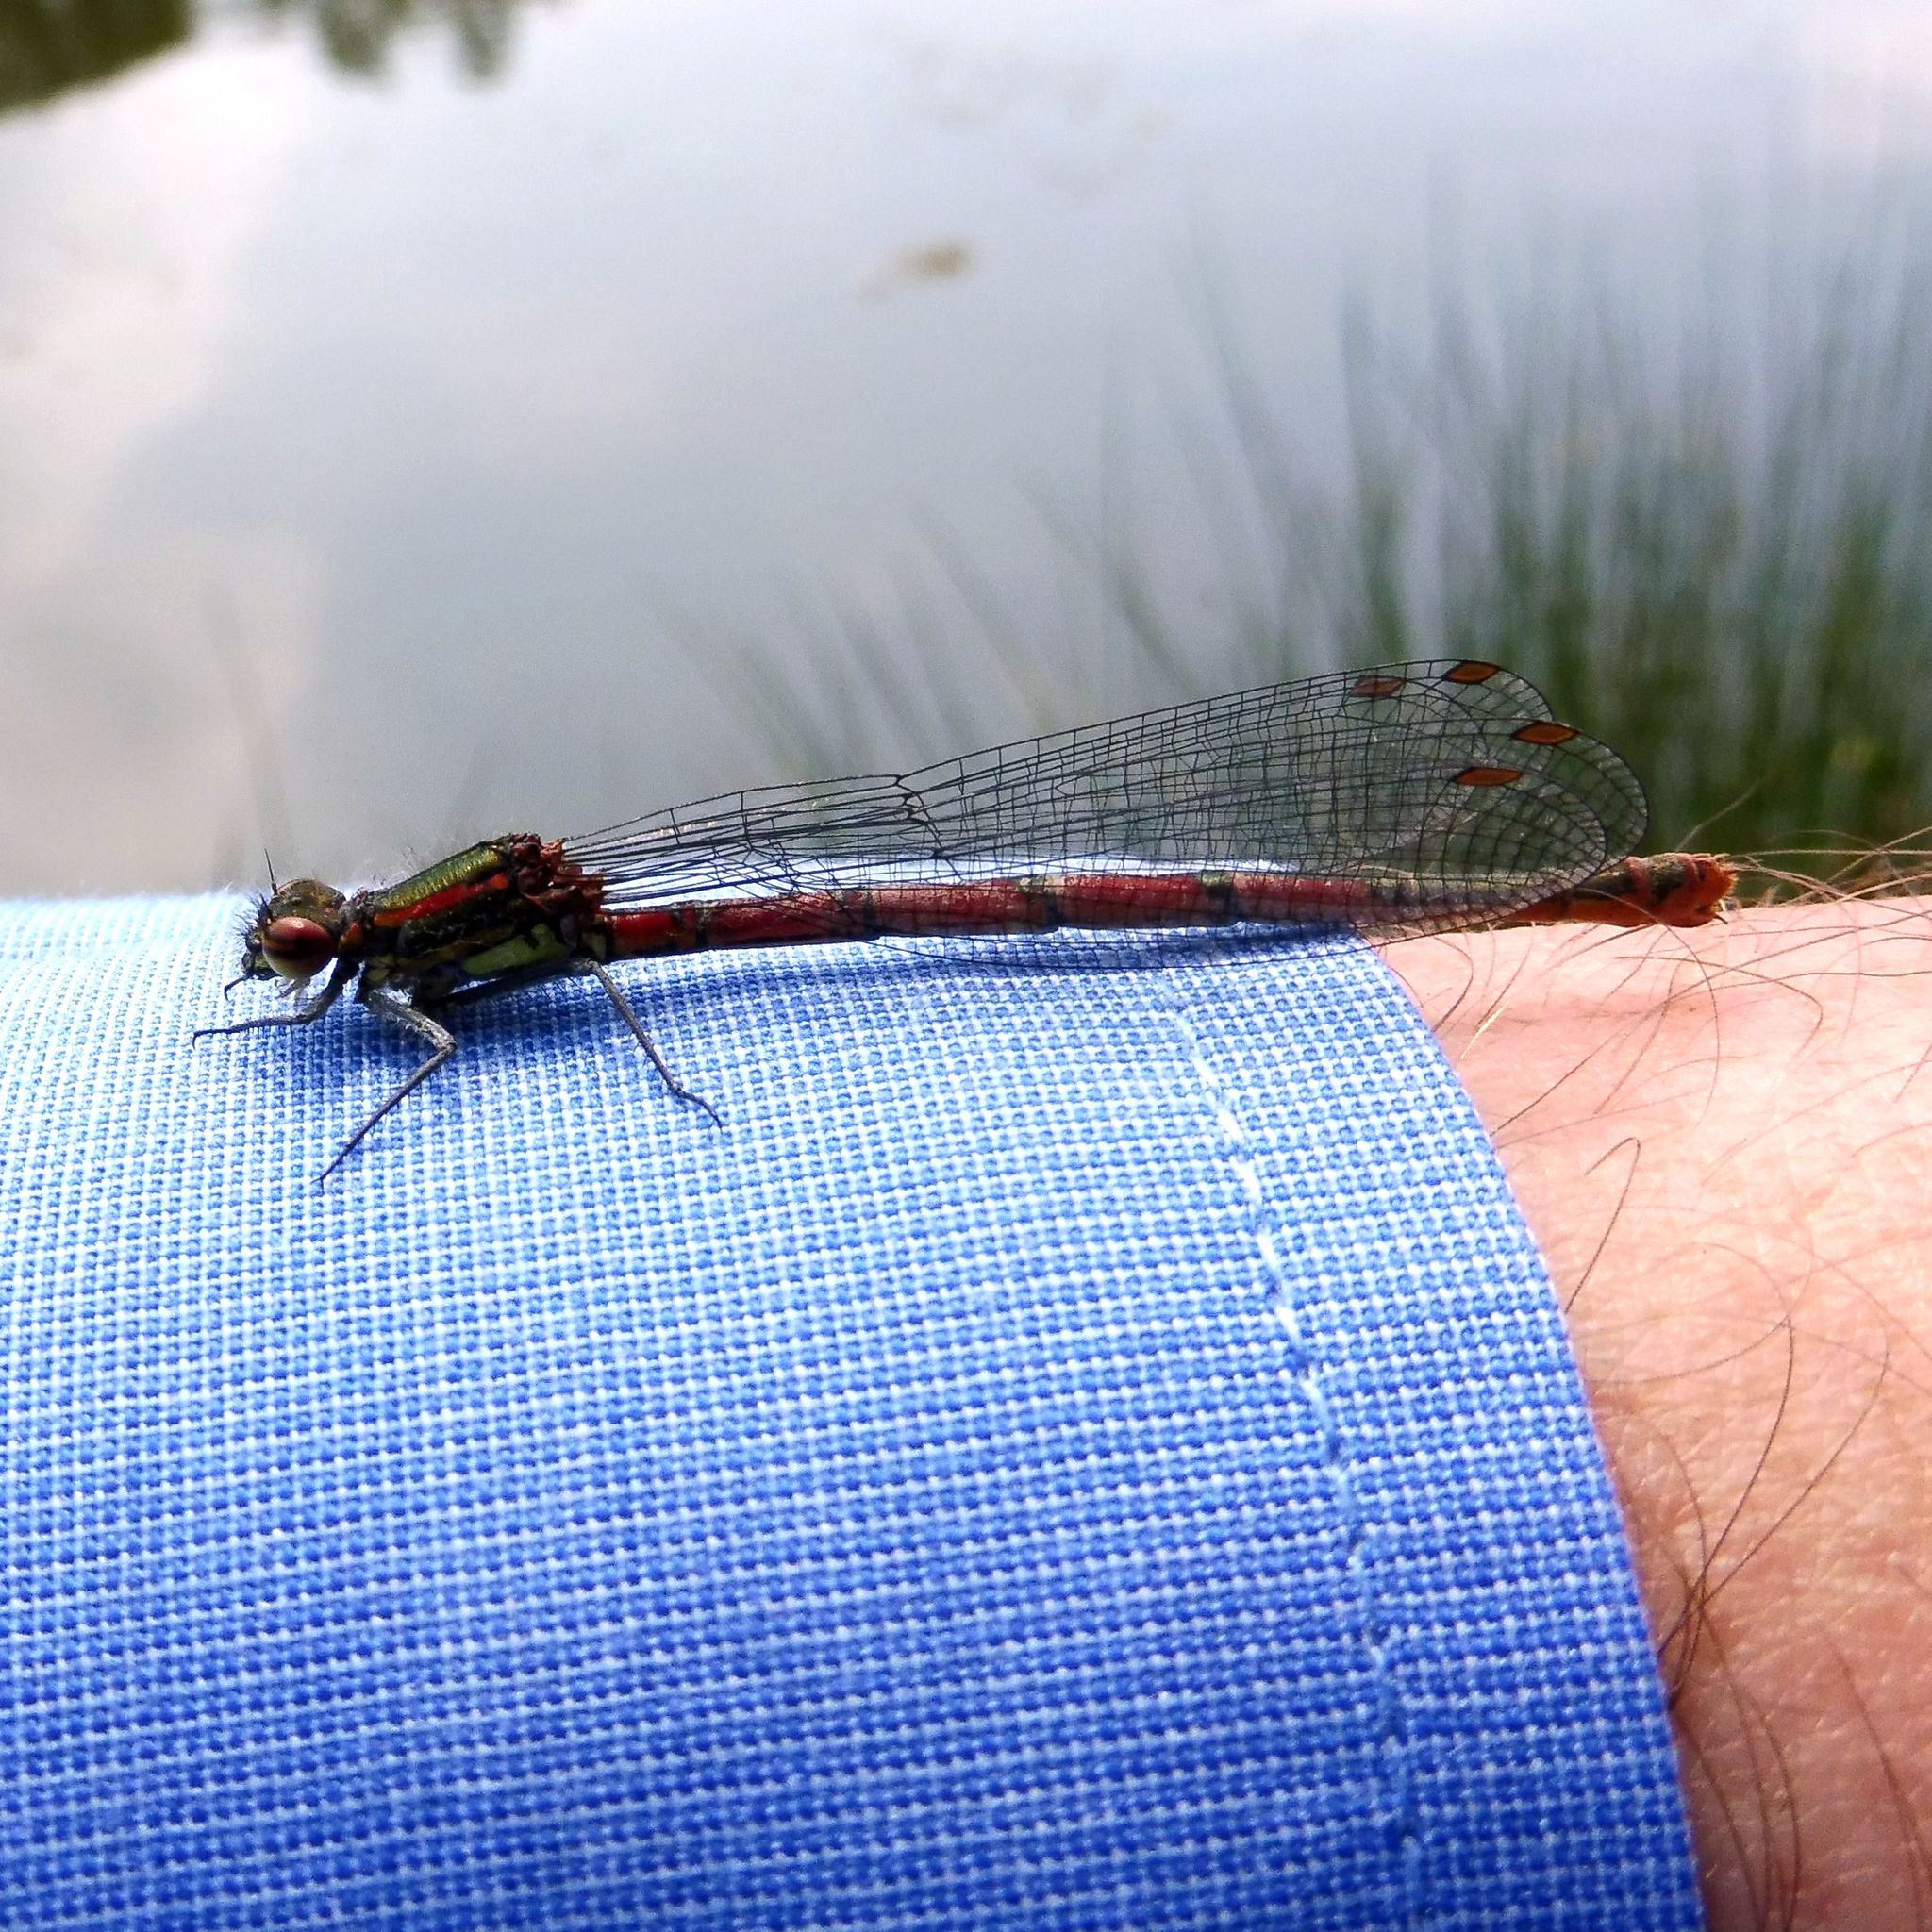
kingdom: Animalia
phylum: Arthropoda
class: Insecta
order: Odonata
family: Coenagrionidae
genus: Pyrrhosoma
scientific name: Pyrrhosoma nymphula
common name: Large red damsel
